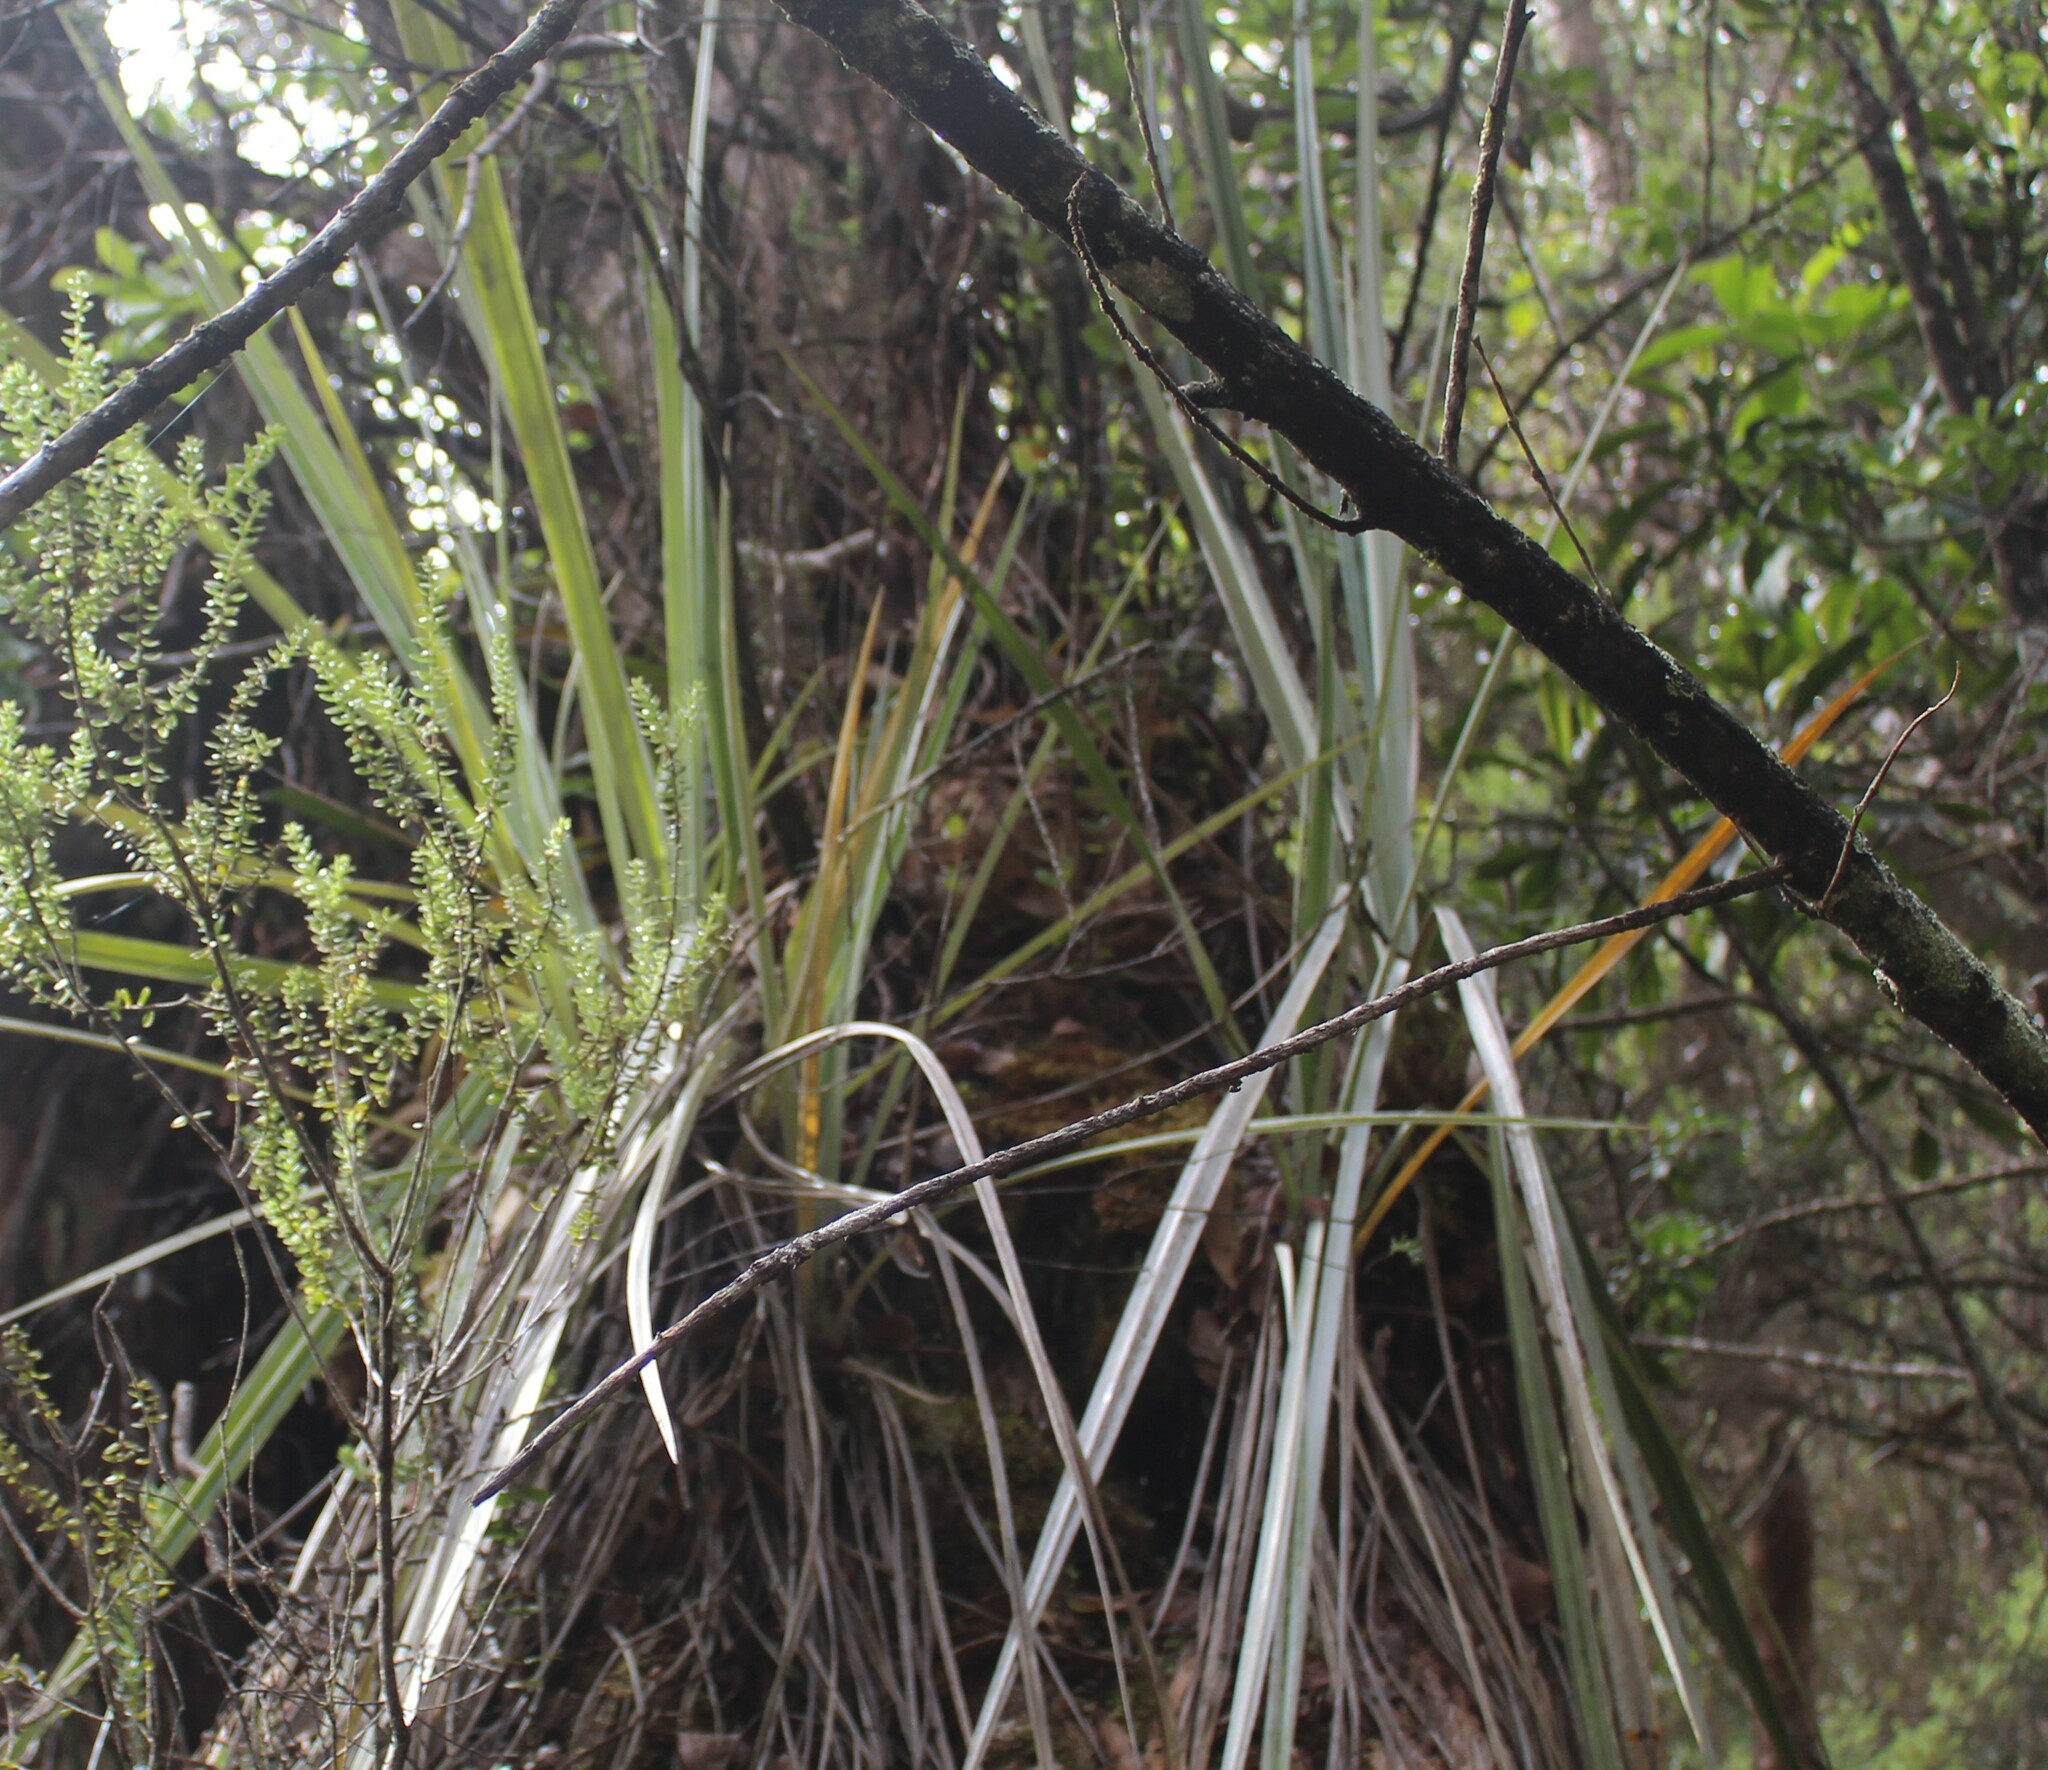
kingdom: Plantae
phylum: Tracheophyta
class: Liliopsida
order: Asparagales
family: Asteliaceae
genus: Astelia
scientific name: Astelia menziesiana
